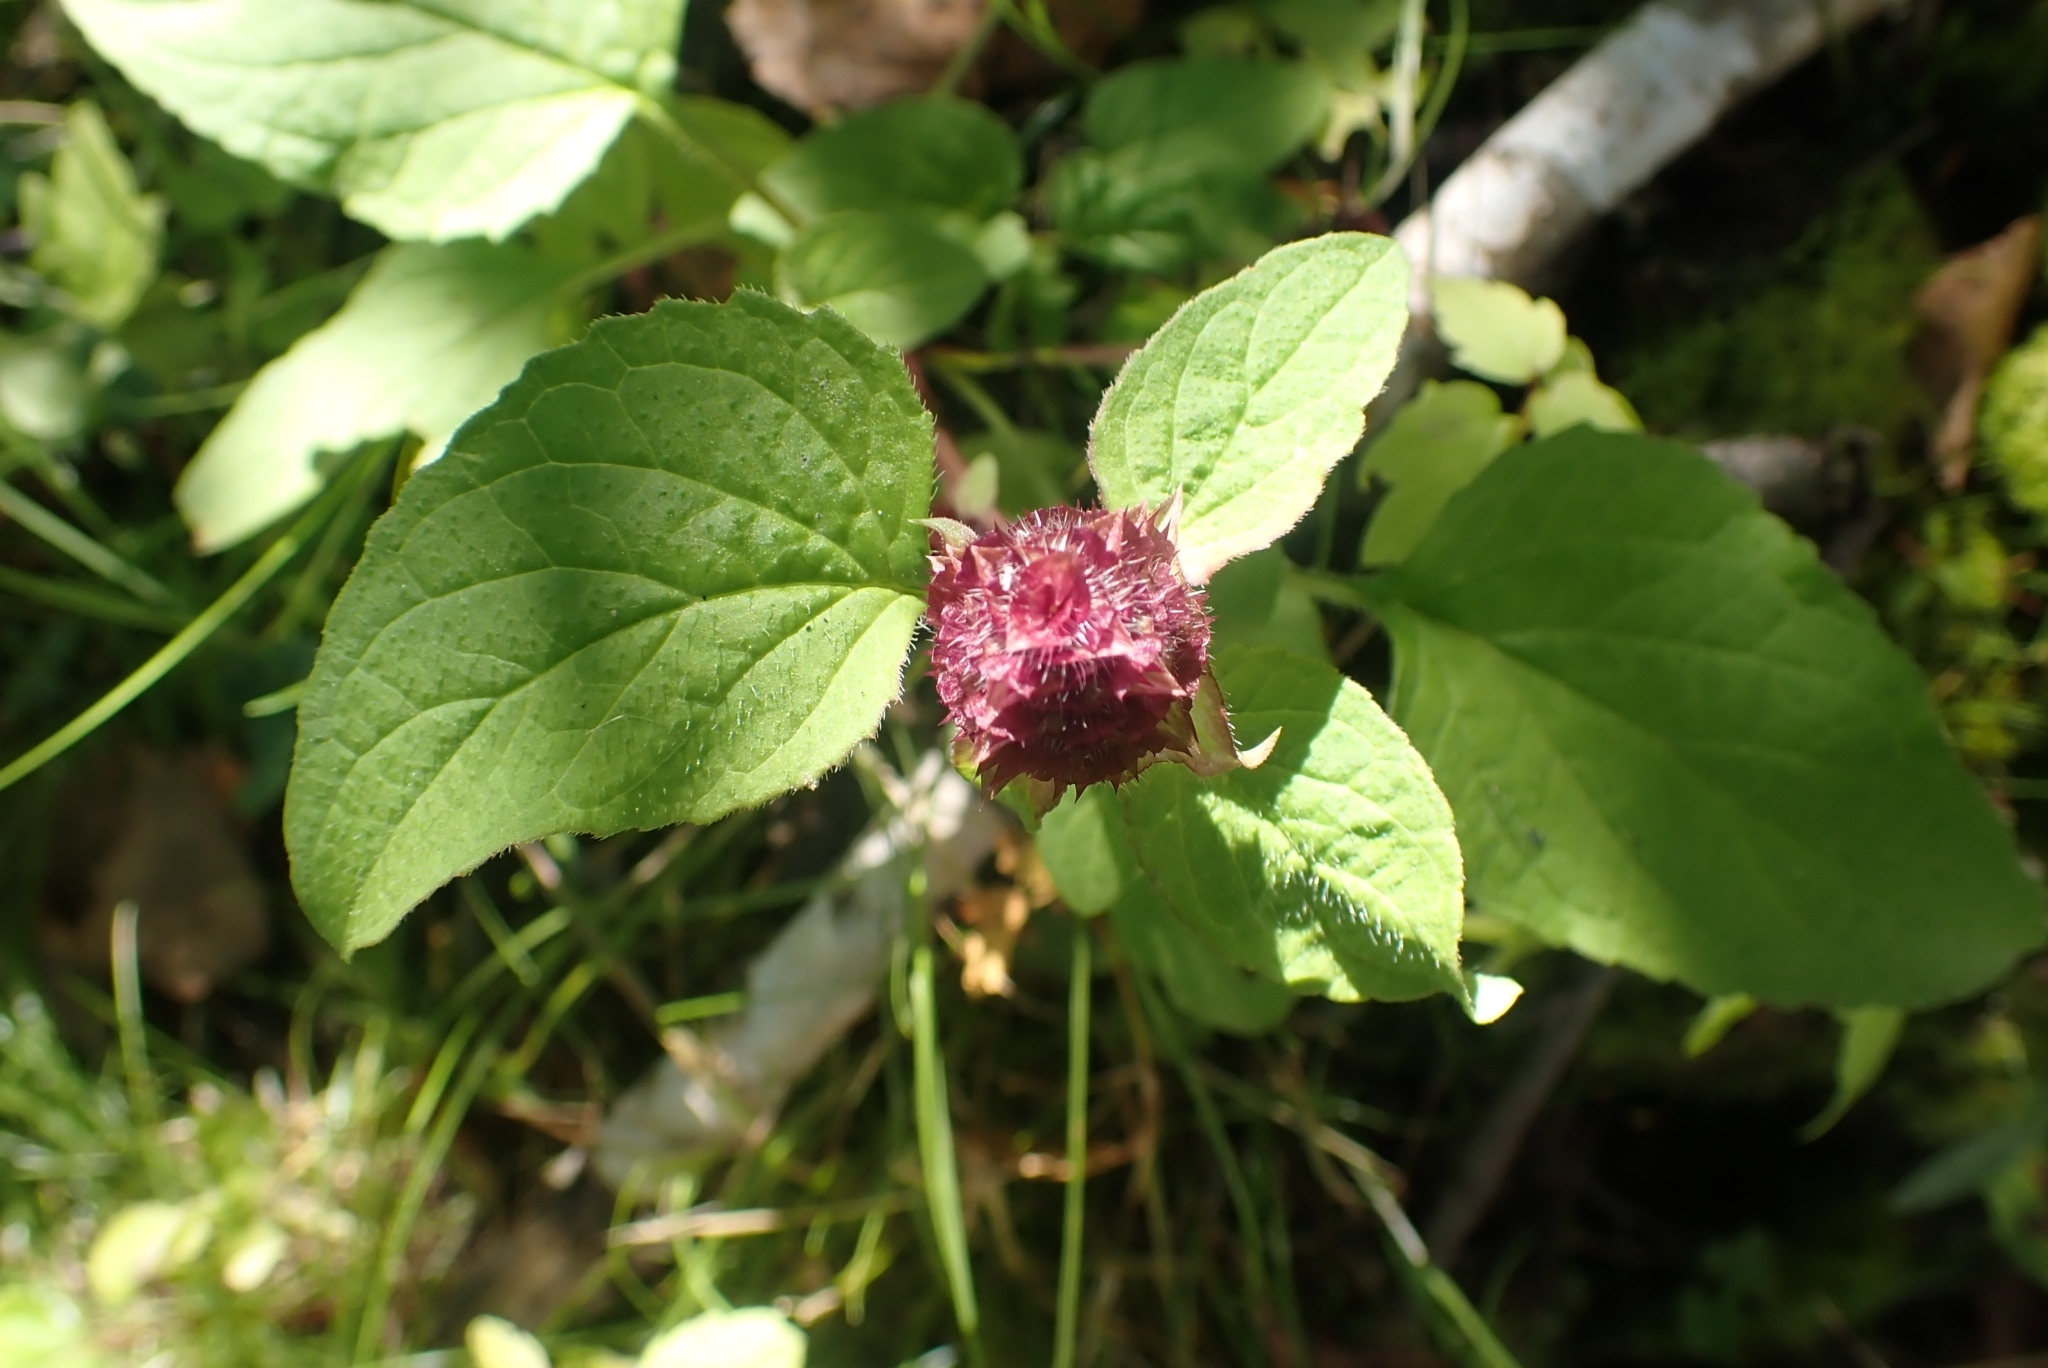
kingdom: Plantae
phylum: Tracheophyta
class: Magnoliopsida
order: Lamiales
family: Lamiaceae
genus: Prunella
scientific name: Prunella vulgaris
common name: Heal-all
